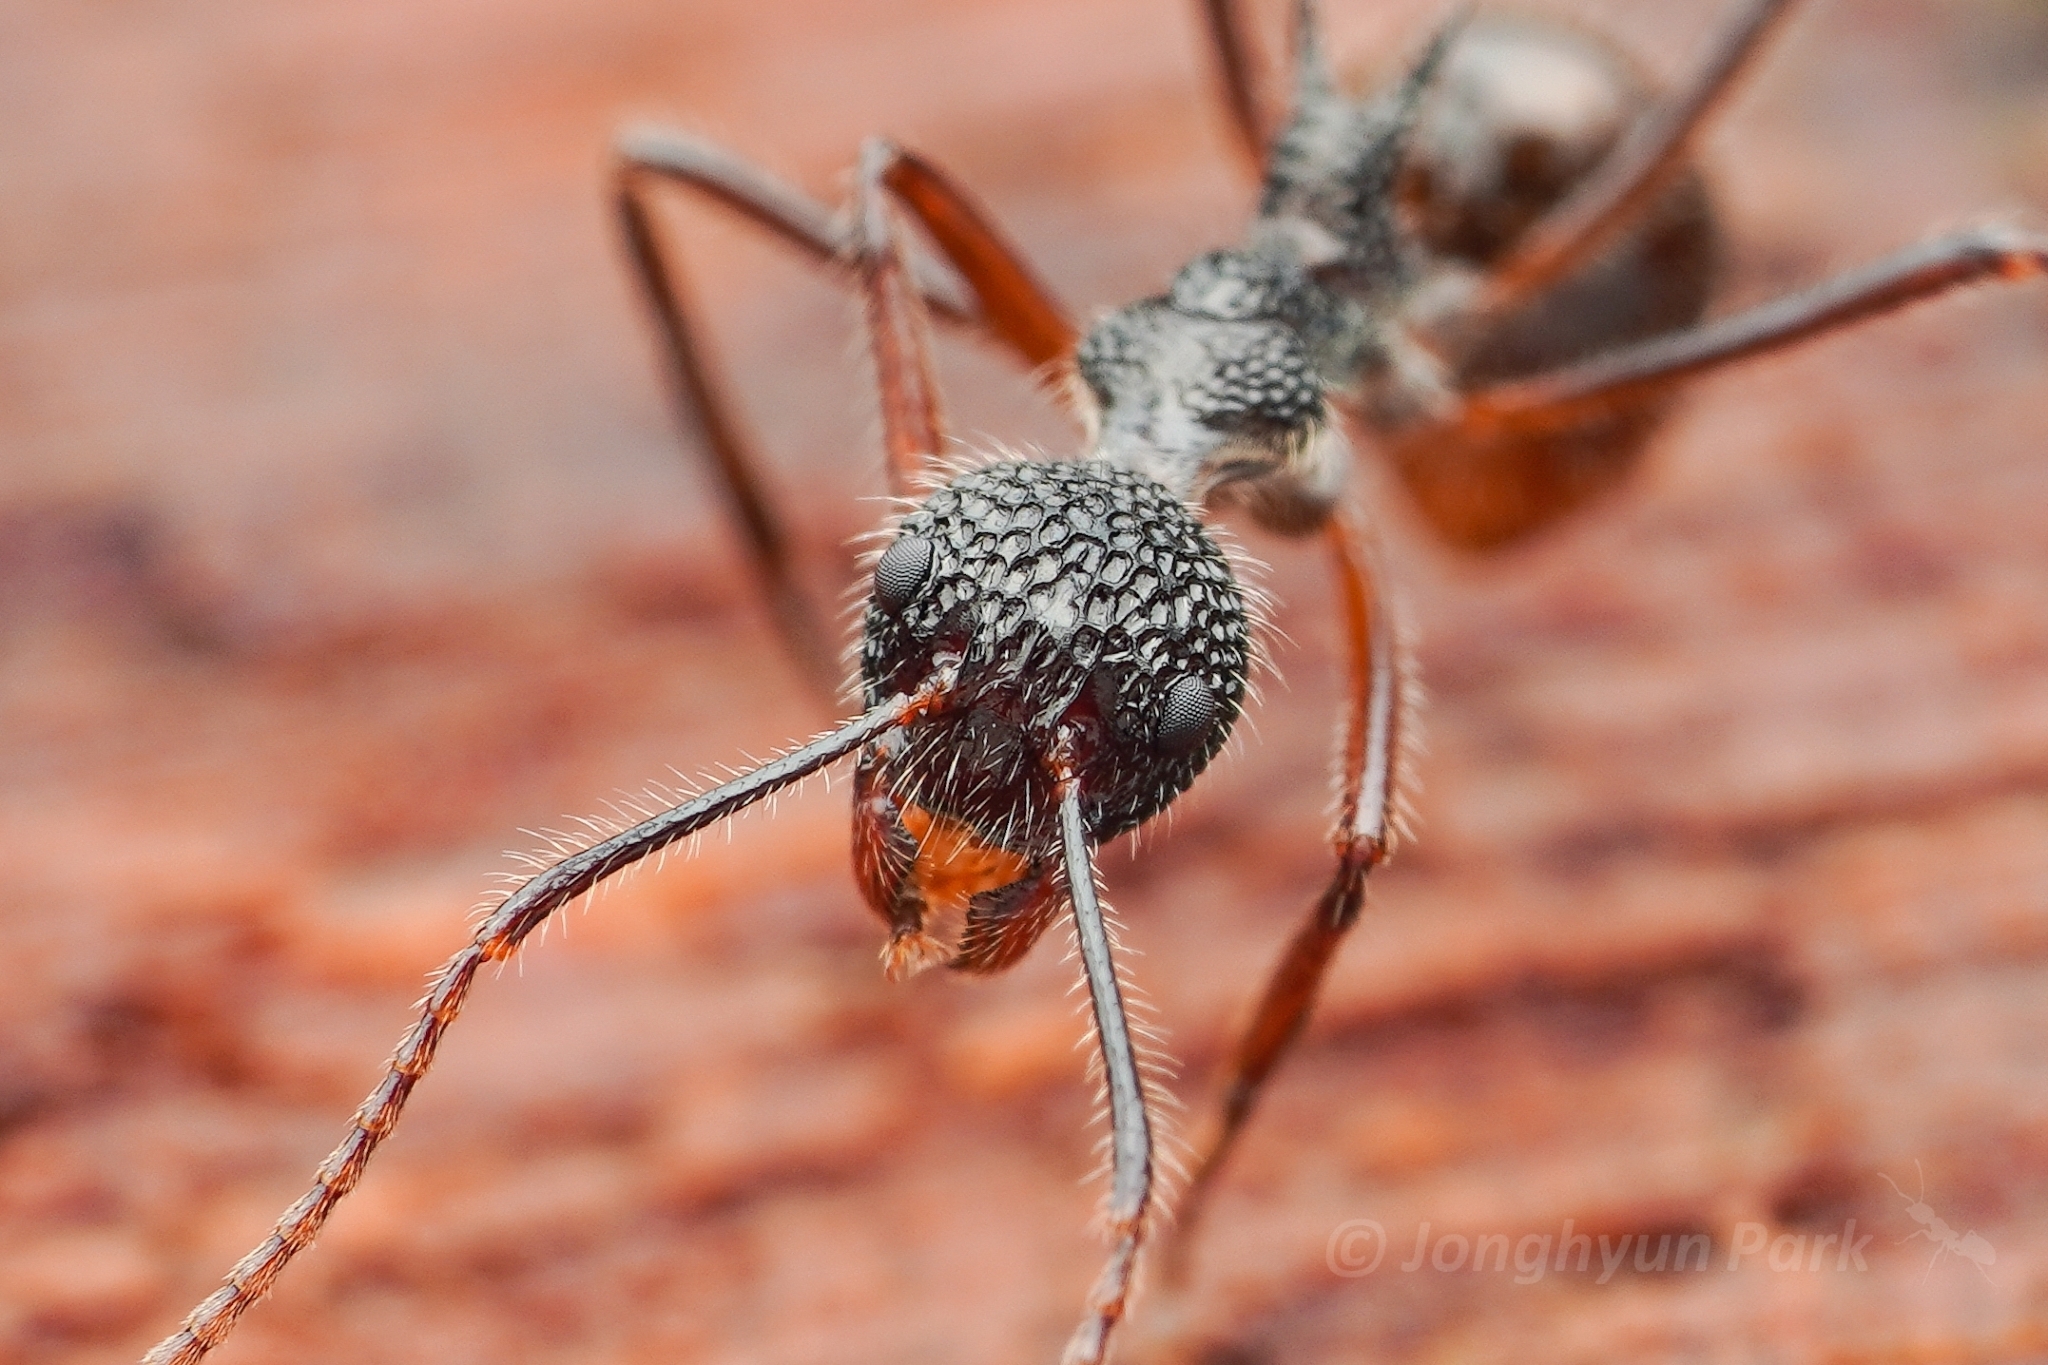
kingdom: Animalia
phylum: Arthropoda
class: Insecta
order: Hymenoptera
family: Formicidae
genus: Dolichoderus
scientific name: Dolichoderus indrapurensis
